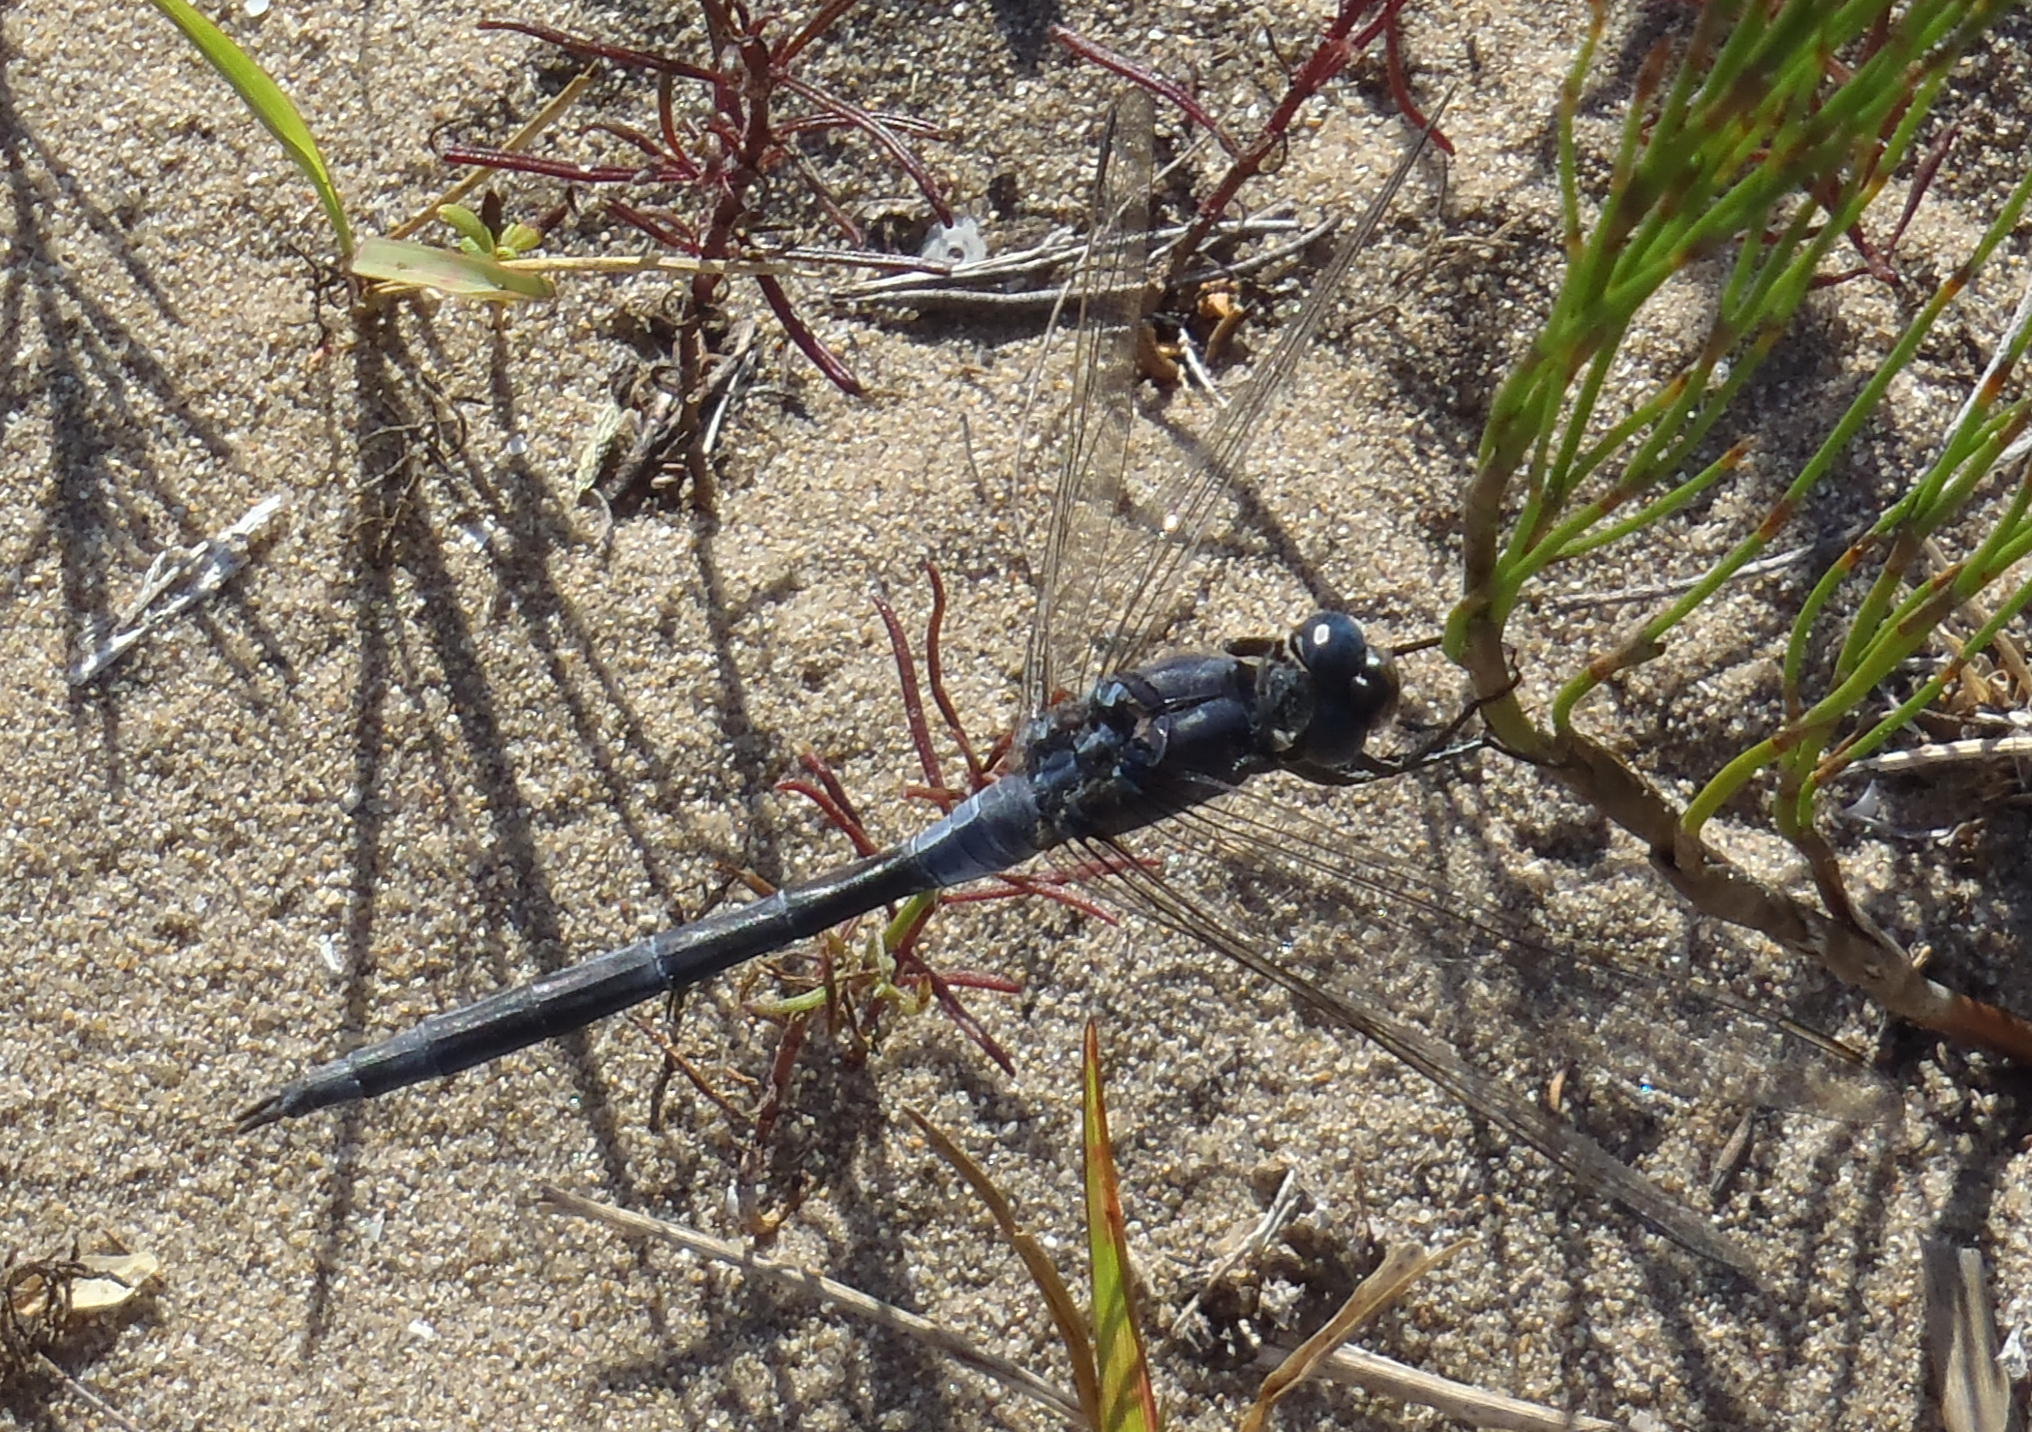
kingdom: Animalia
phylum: Arthropoda
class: Insecta
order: Odonata
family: Libellulidae
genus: Trithemis
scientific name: Trithemis furva
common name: Dark dropwing
